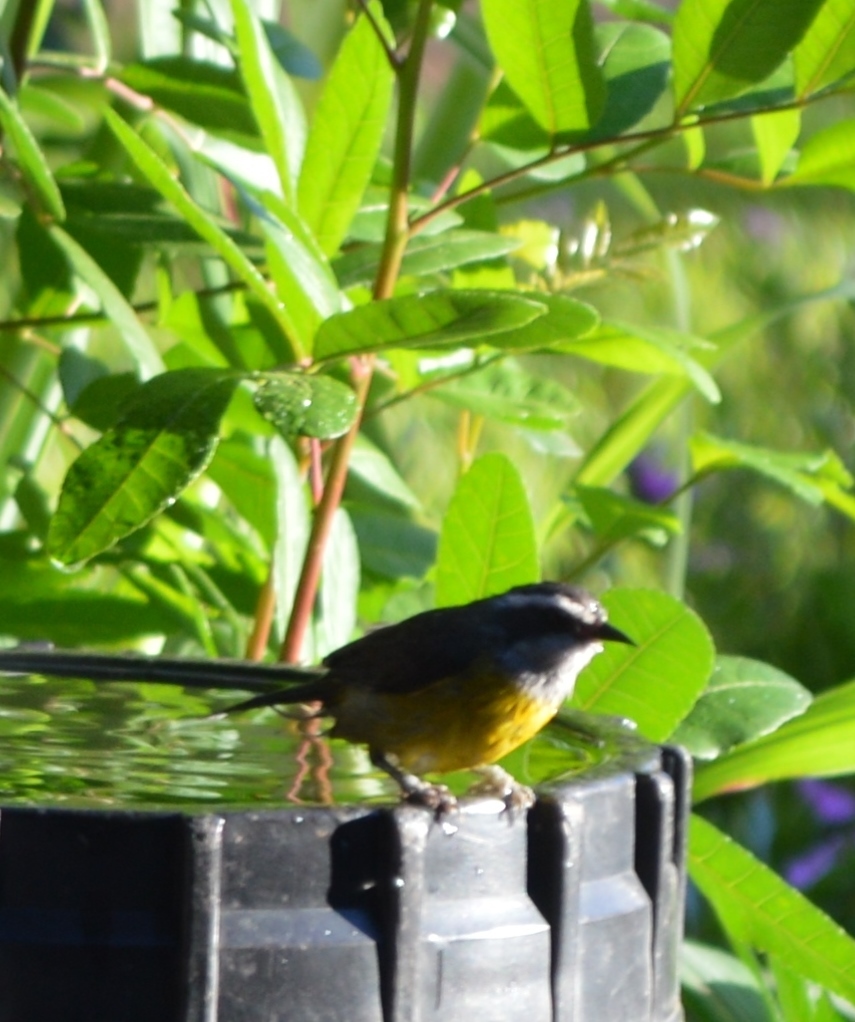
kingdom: Animalia
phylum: Chordata
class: Aves
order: Passeriformes
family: Thraupidae
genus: Coereba
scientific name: Coereba flaveola
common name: Bananaquit
